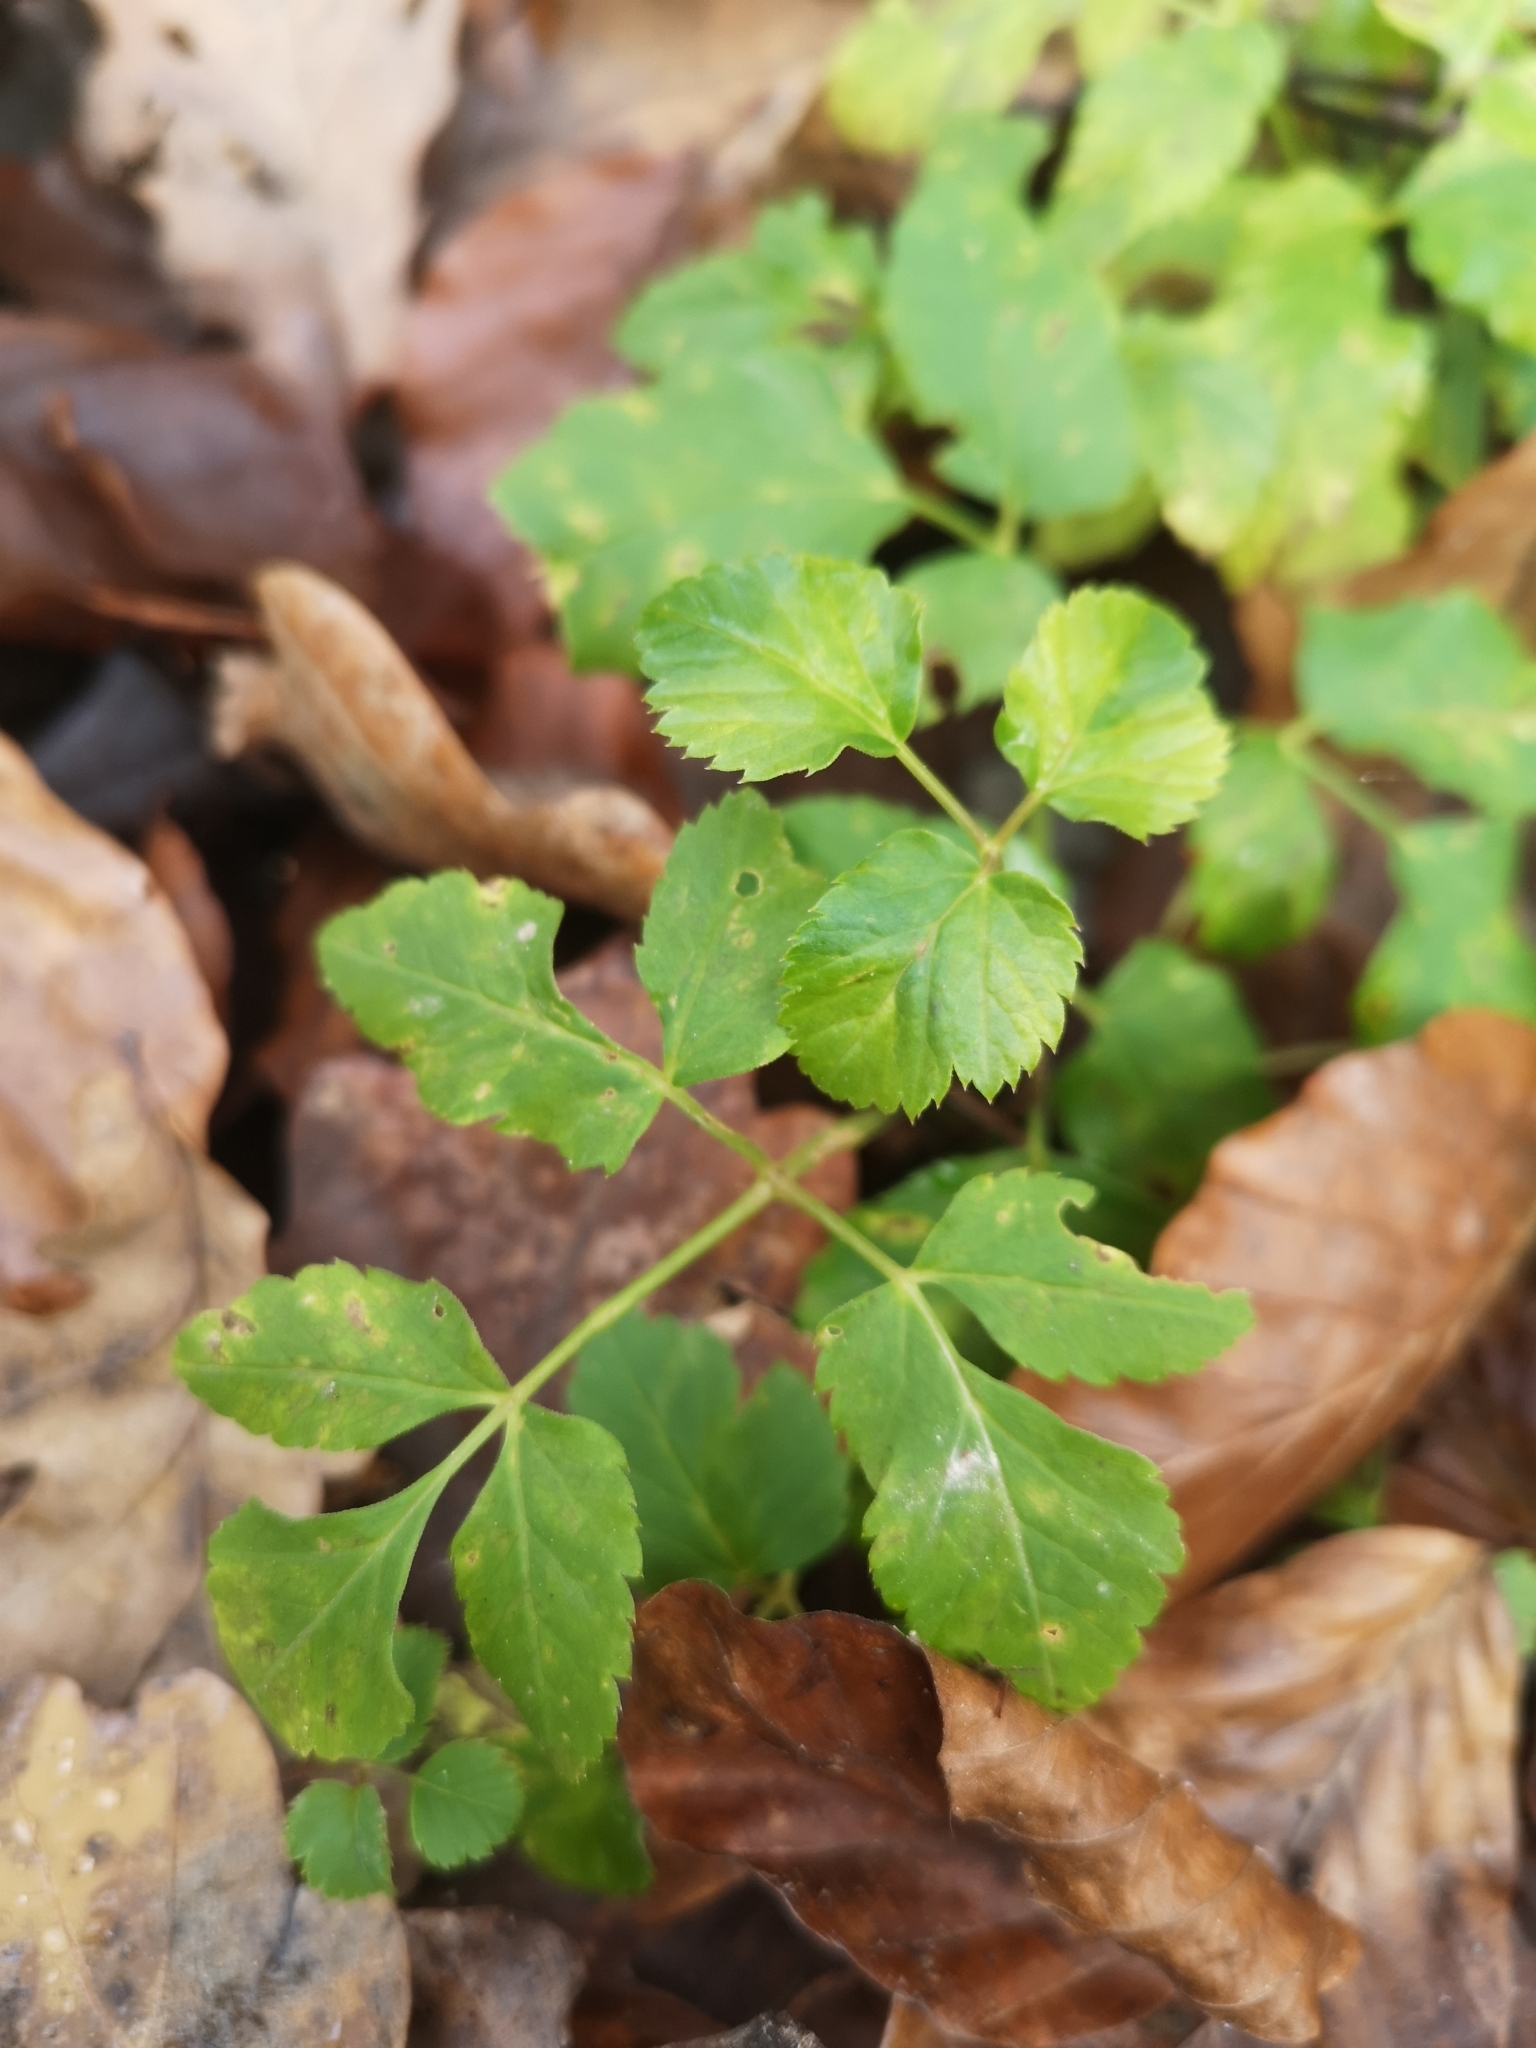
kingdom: Plantae
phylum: Tracheophyta
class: Magnoliopsida
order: Apiales
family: Apiaceae
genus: Aegopodium
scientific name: Aegopodium podagraria
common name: Ground-elder
